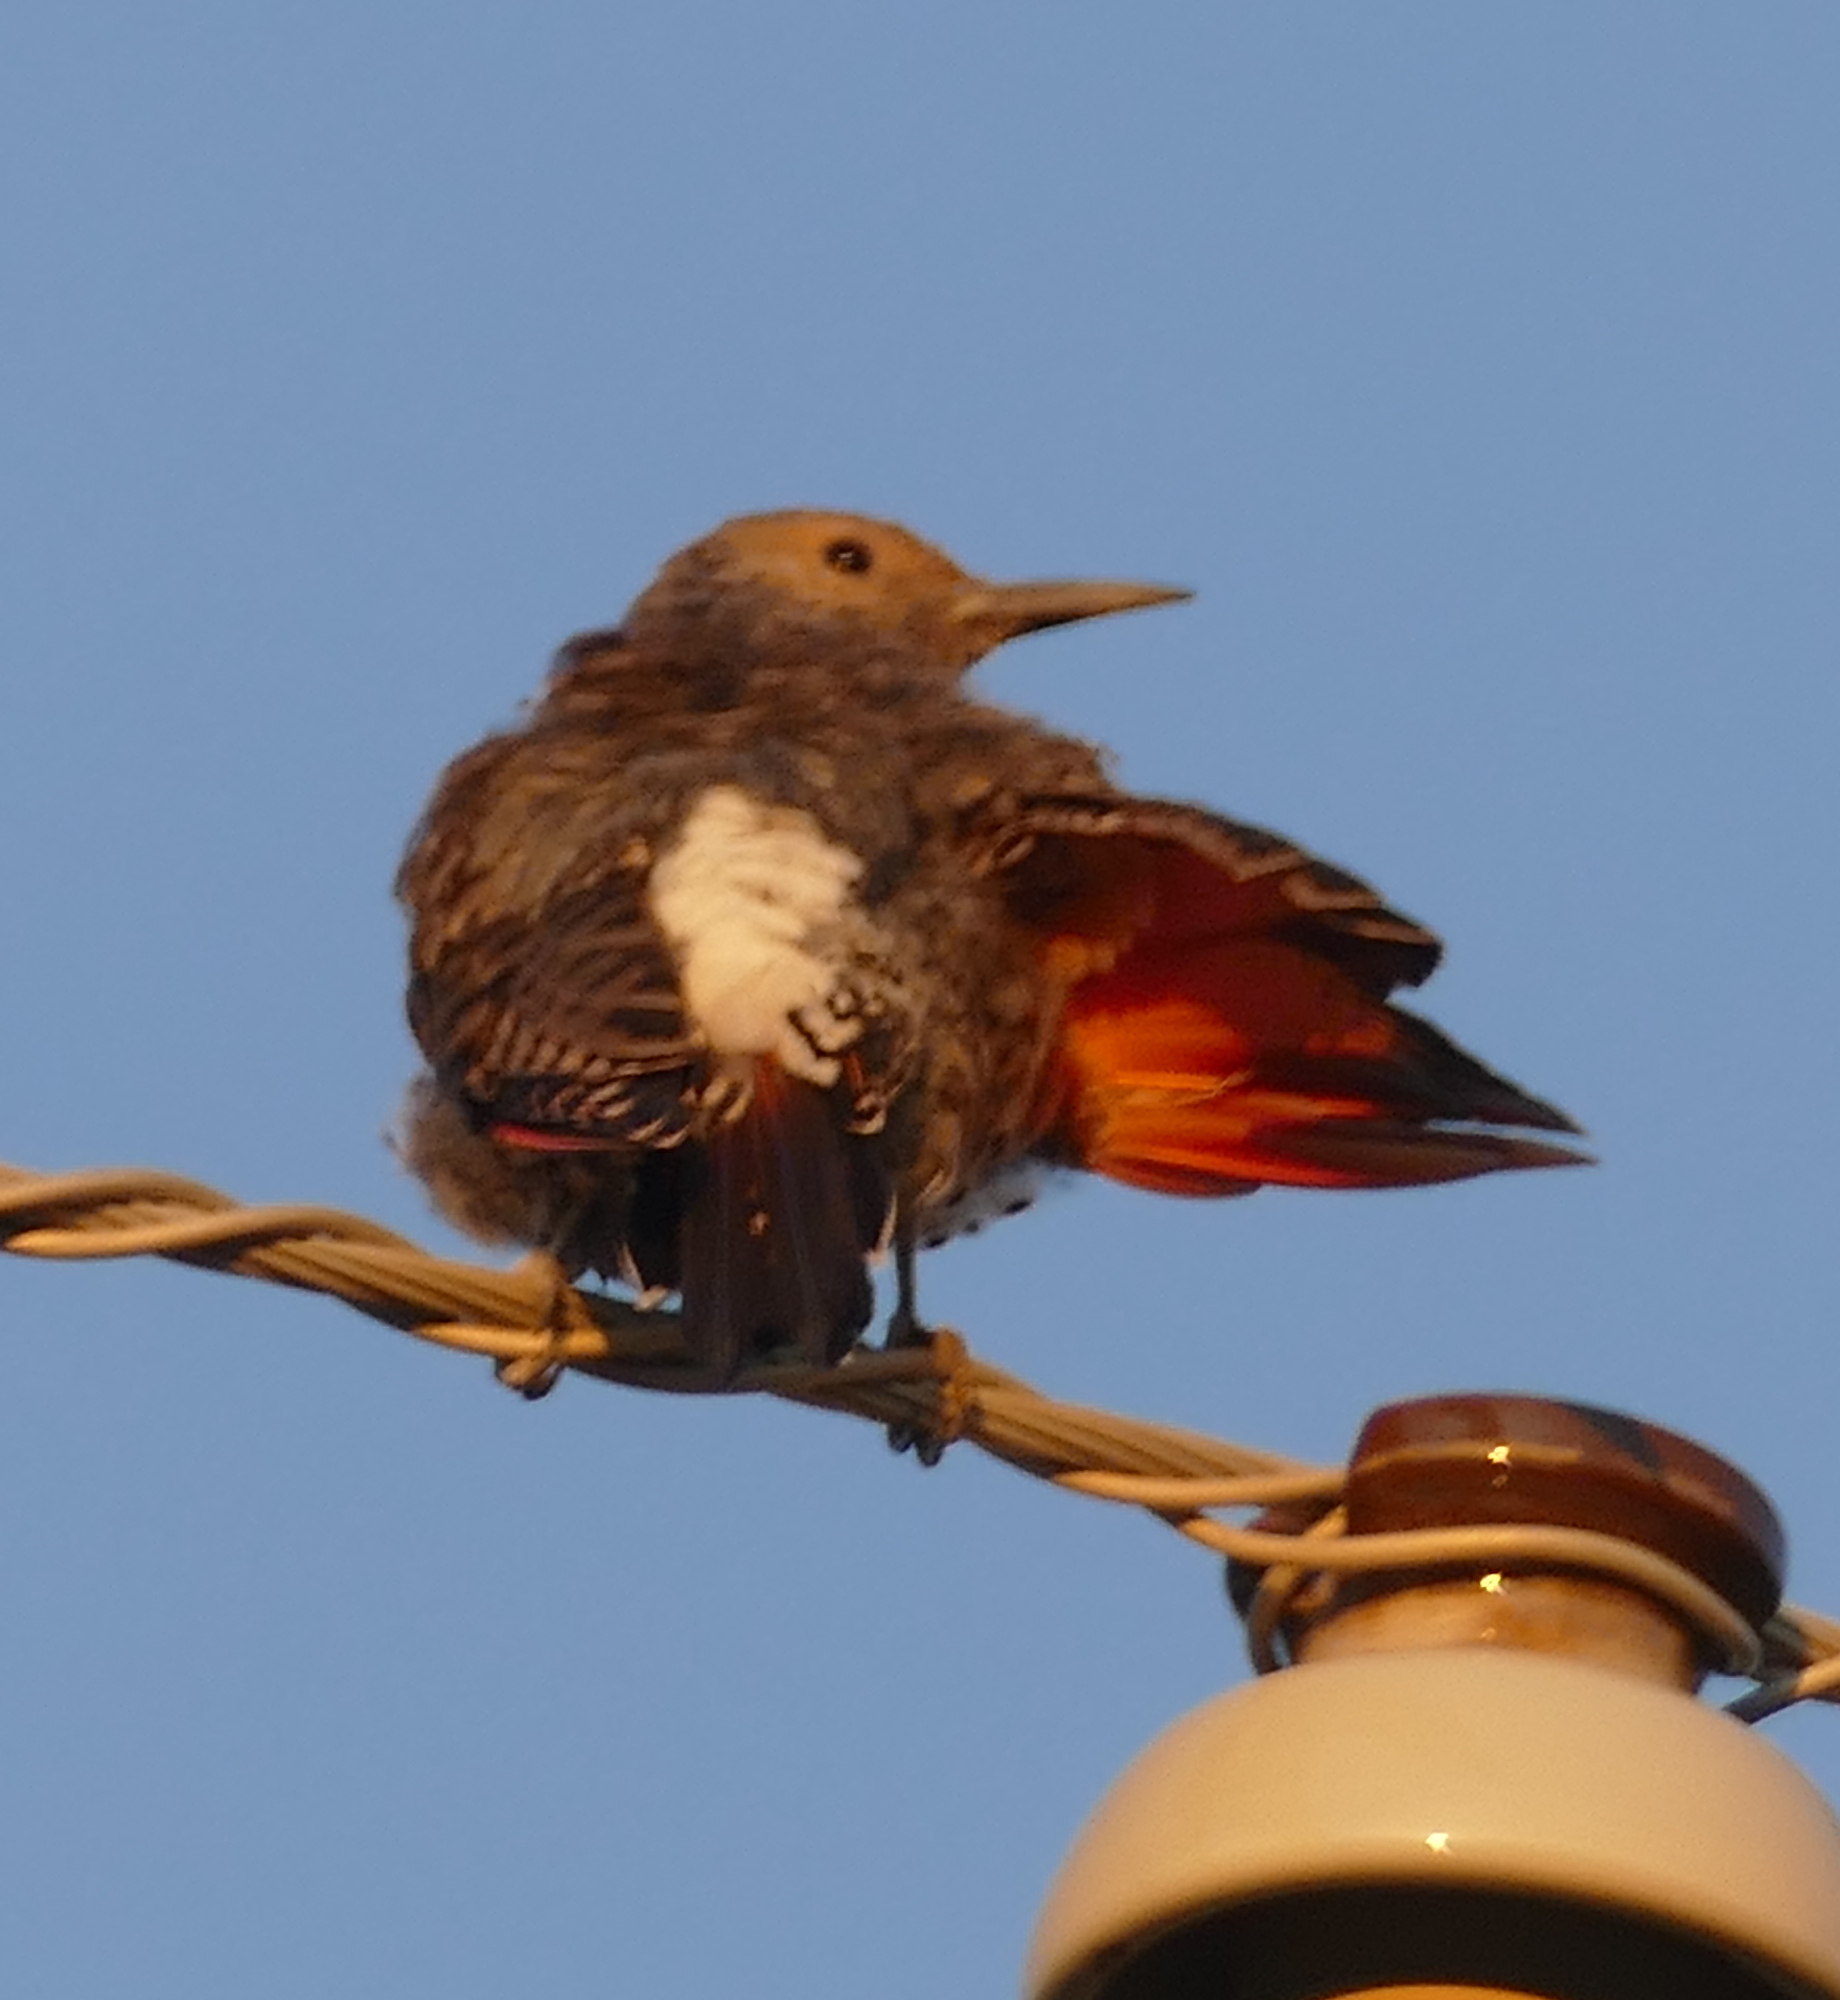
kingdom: Animalia
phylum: Chordata
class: Aves
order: Piciformes
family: Picidae
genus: Colaptes
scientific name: Colaptes auratus
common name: Northern flicker
